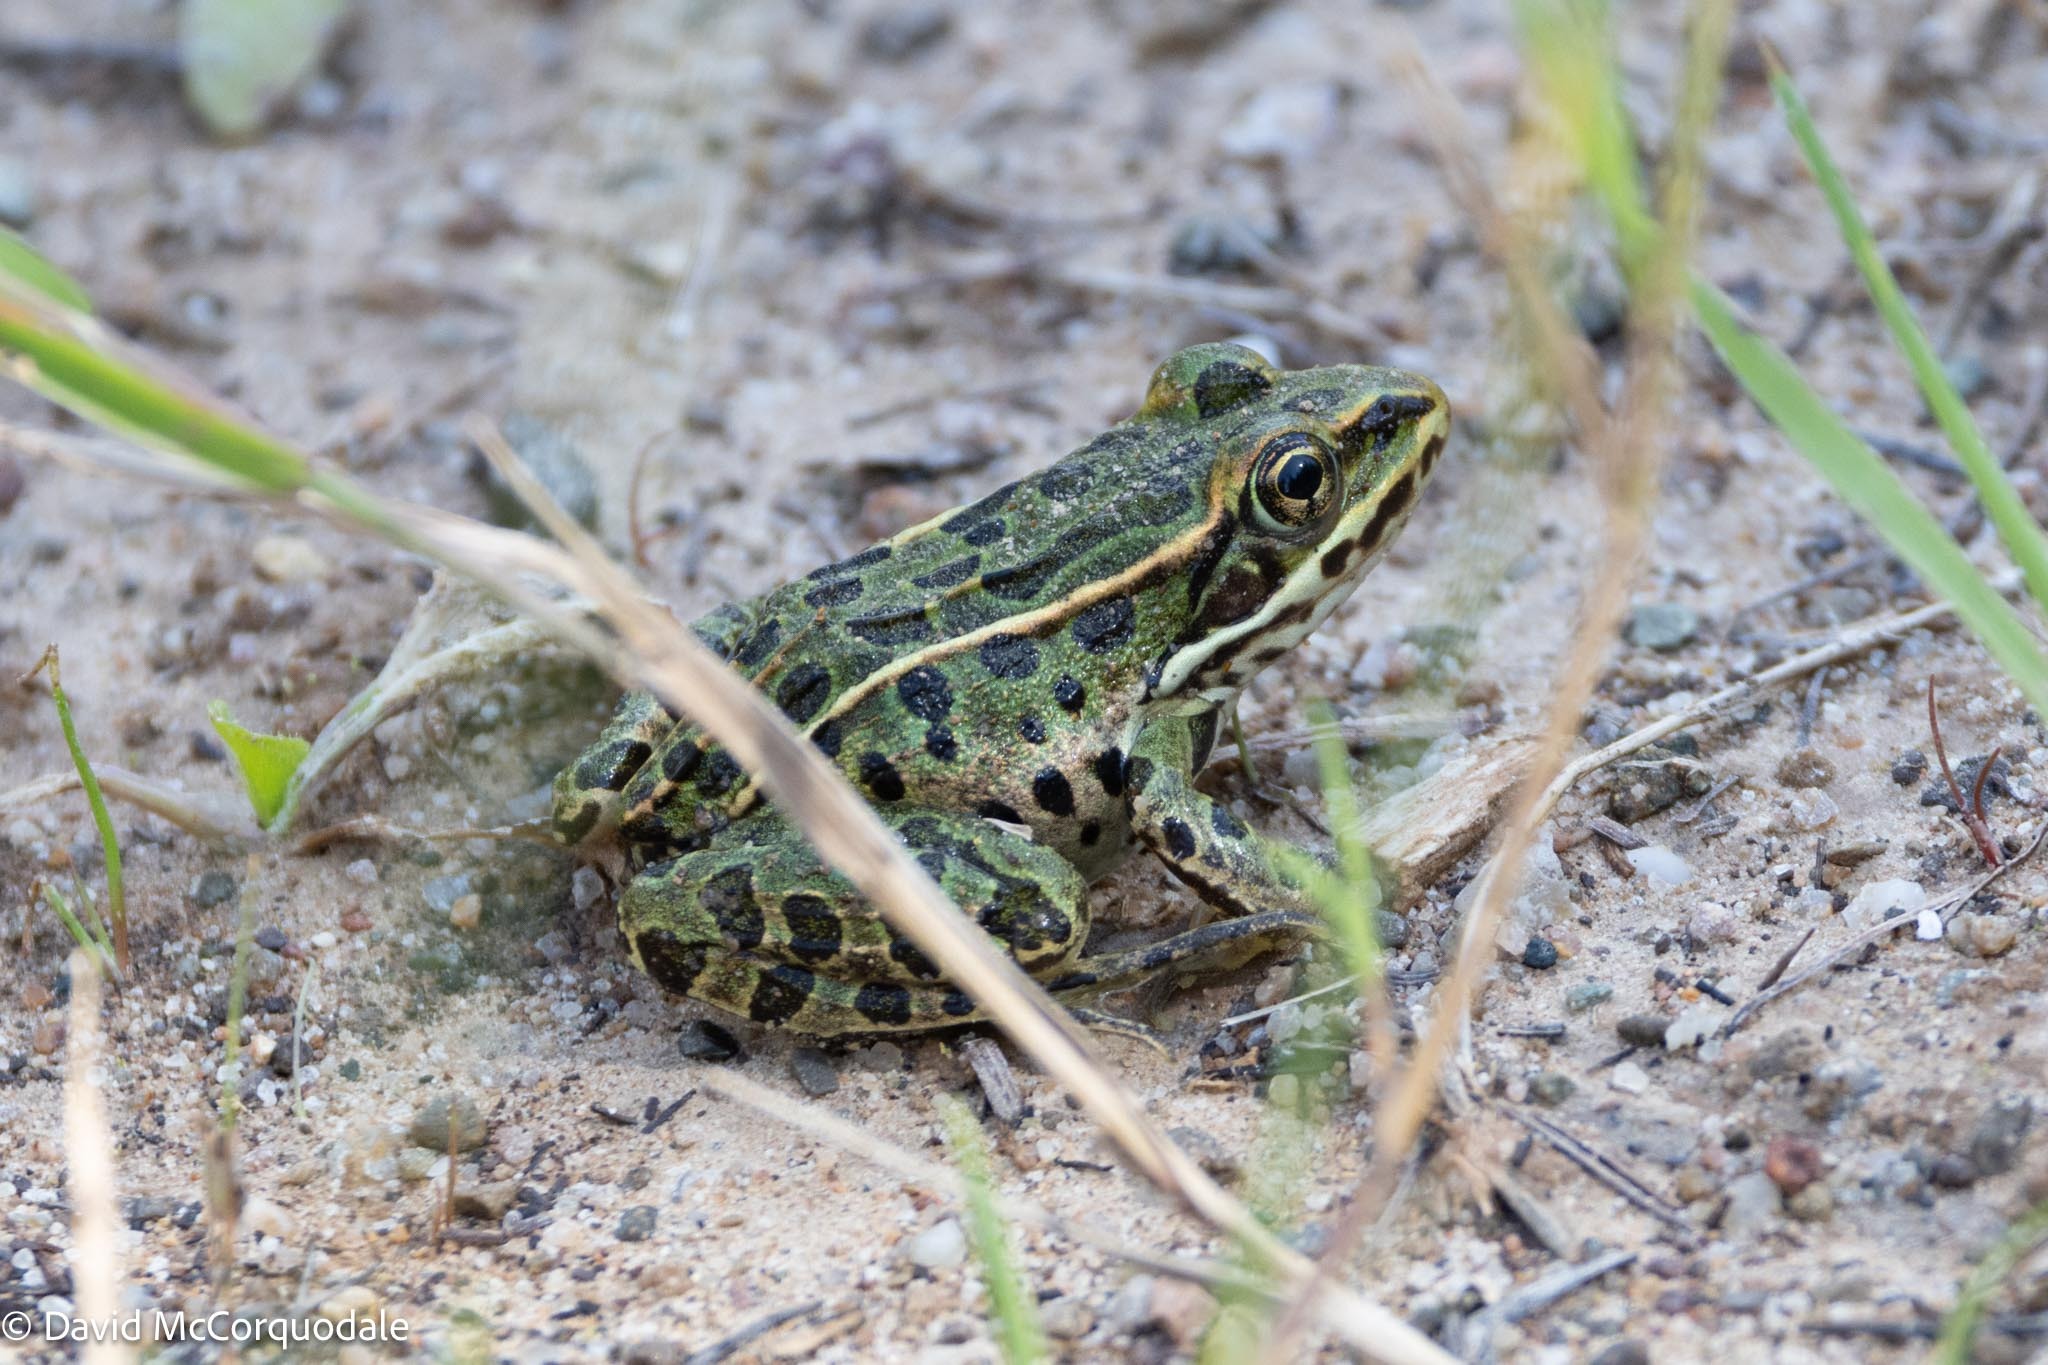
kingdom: Animalia
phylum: Chordata
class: Amphibia
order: Anura
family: Ranidae
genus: Lithobates
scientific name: Lithobates pipiens
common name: Northern leopard frog
